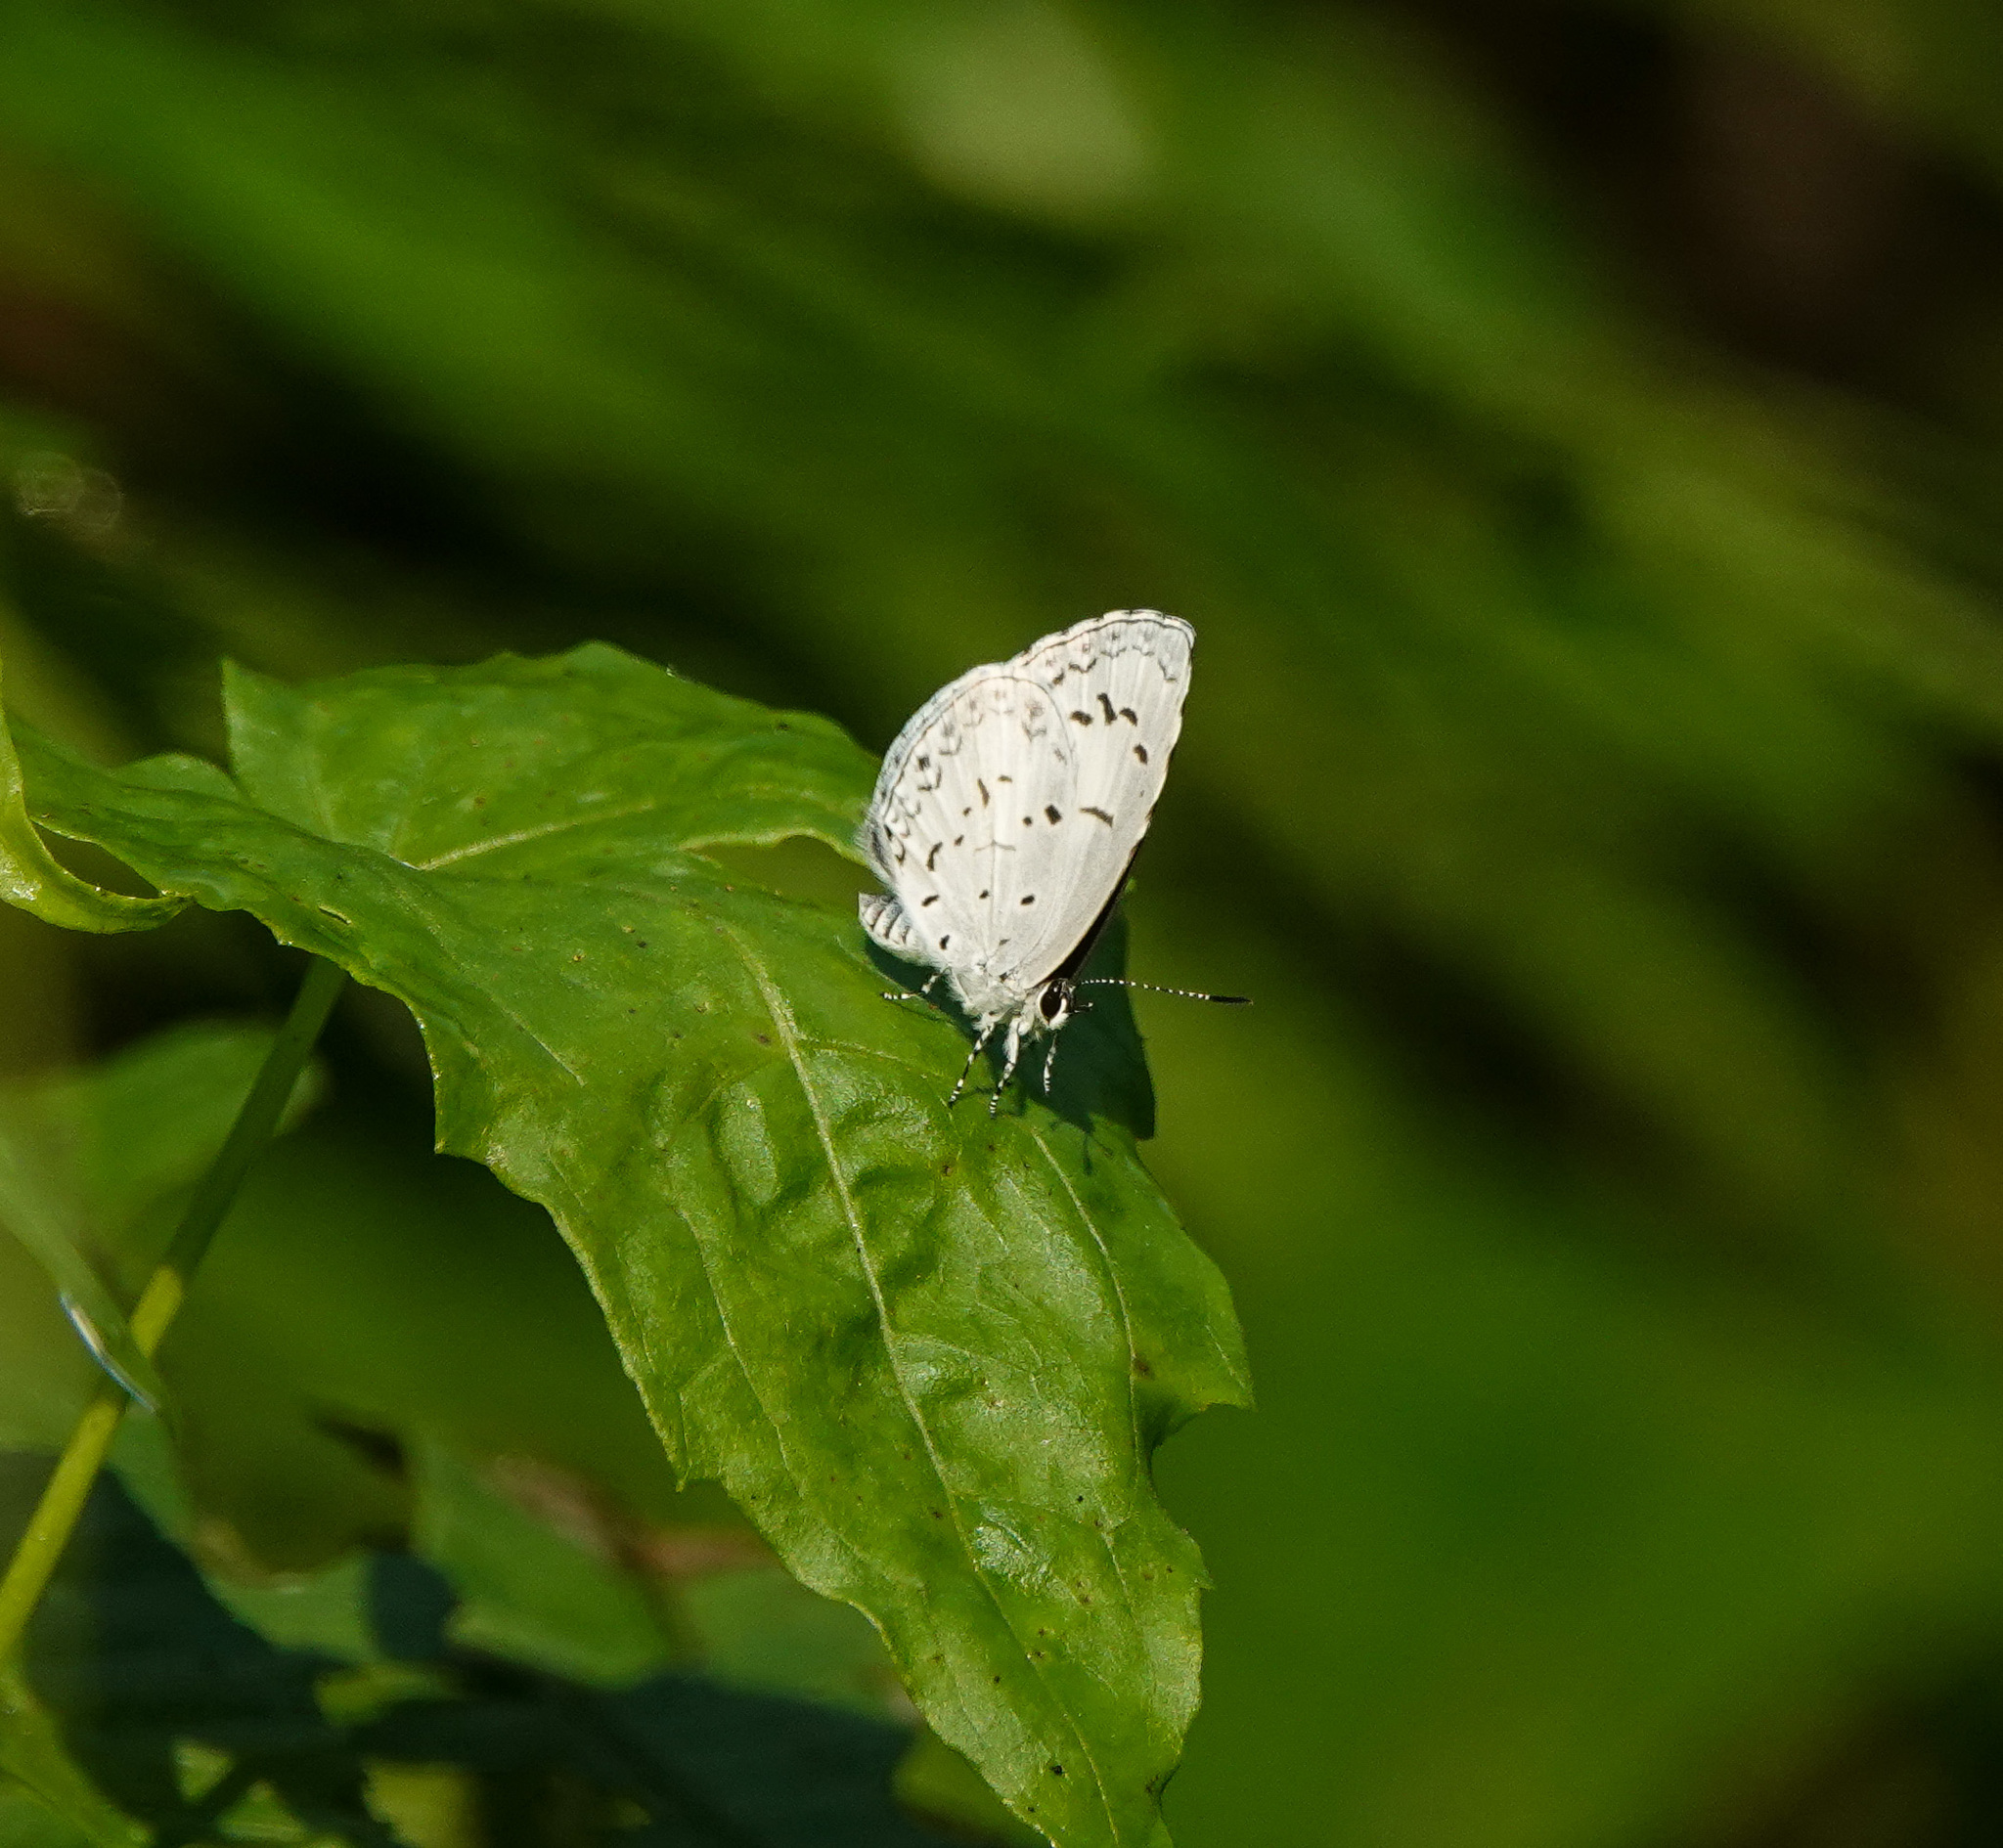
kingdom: Animalia
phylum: Arthropoda
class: Insecta
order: Lepidoptera
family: Lycaenidae
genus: Acytolepis
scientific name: Acytolepis puspa
